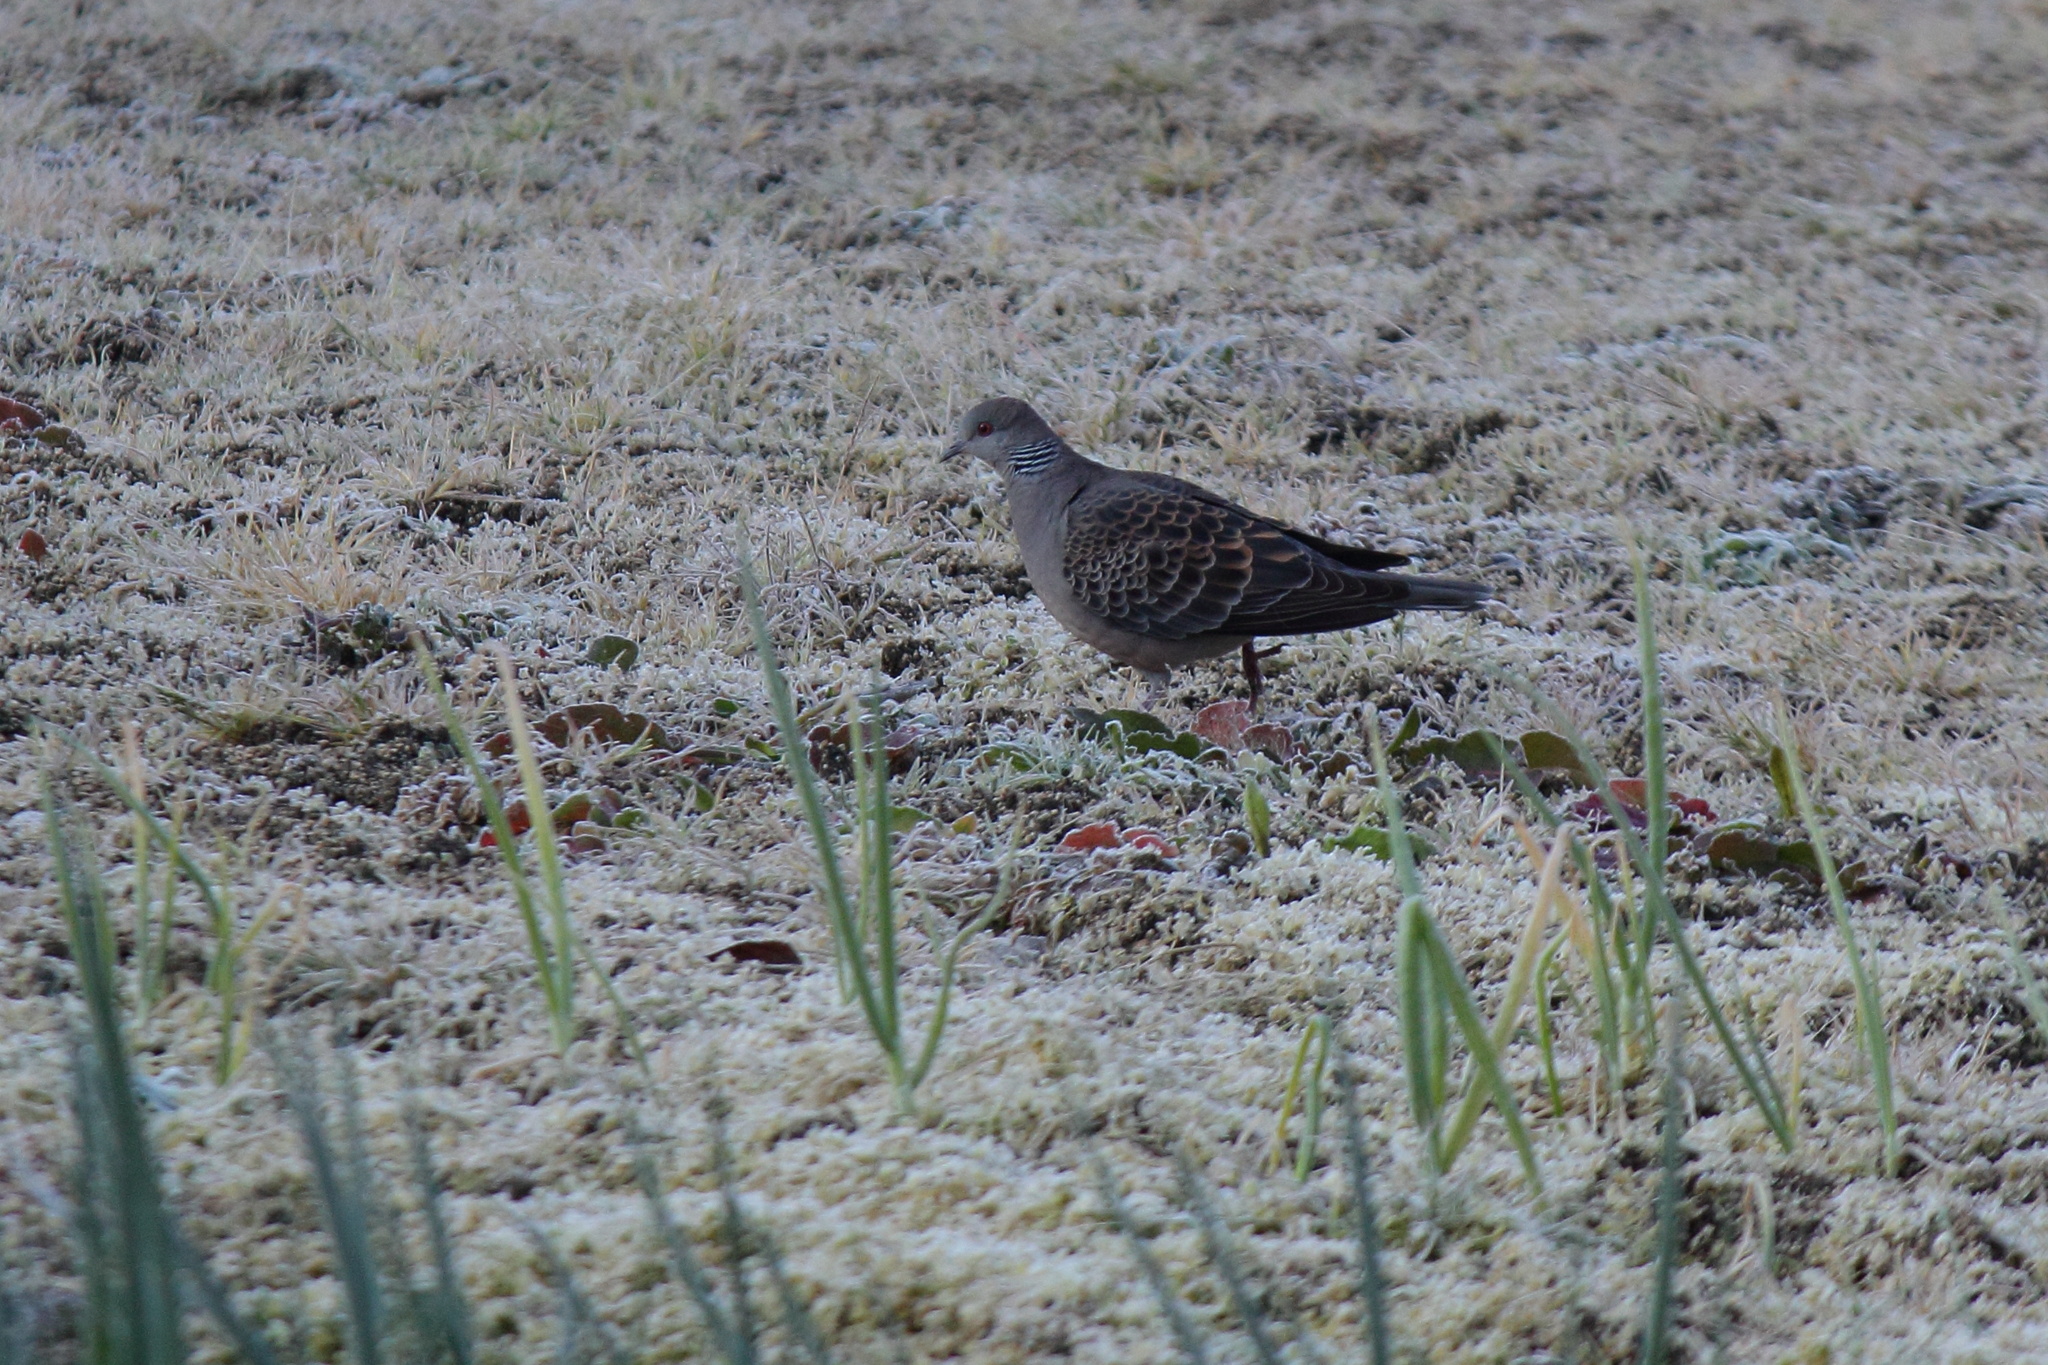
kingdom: Animalia
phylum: Chordata
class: Aves
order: Columbiformes
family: Columbidae
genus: Streptopelia
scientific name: Streptopelia orientalis
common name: Oriental turtle dove
